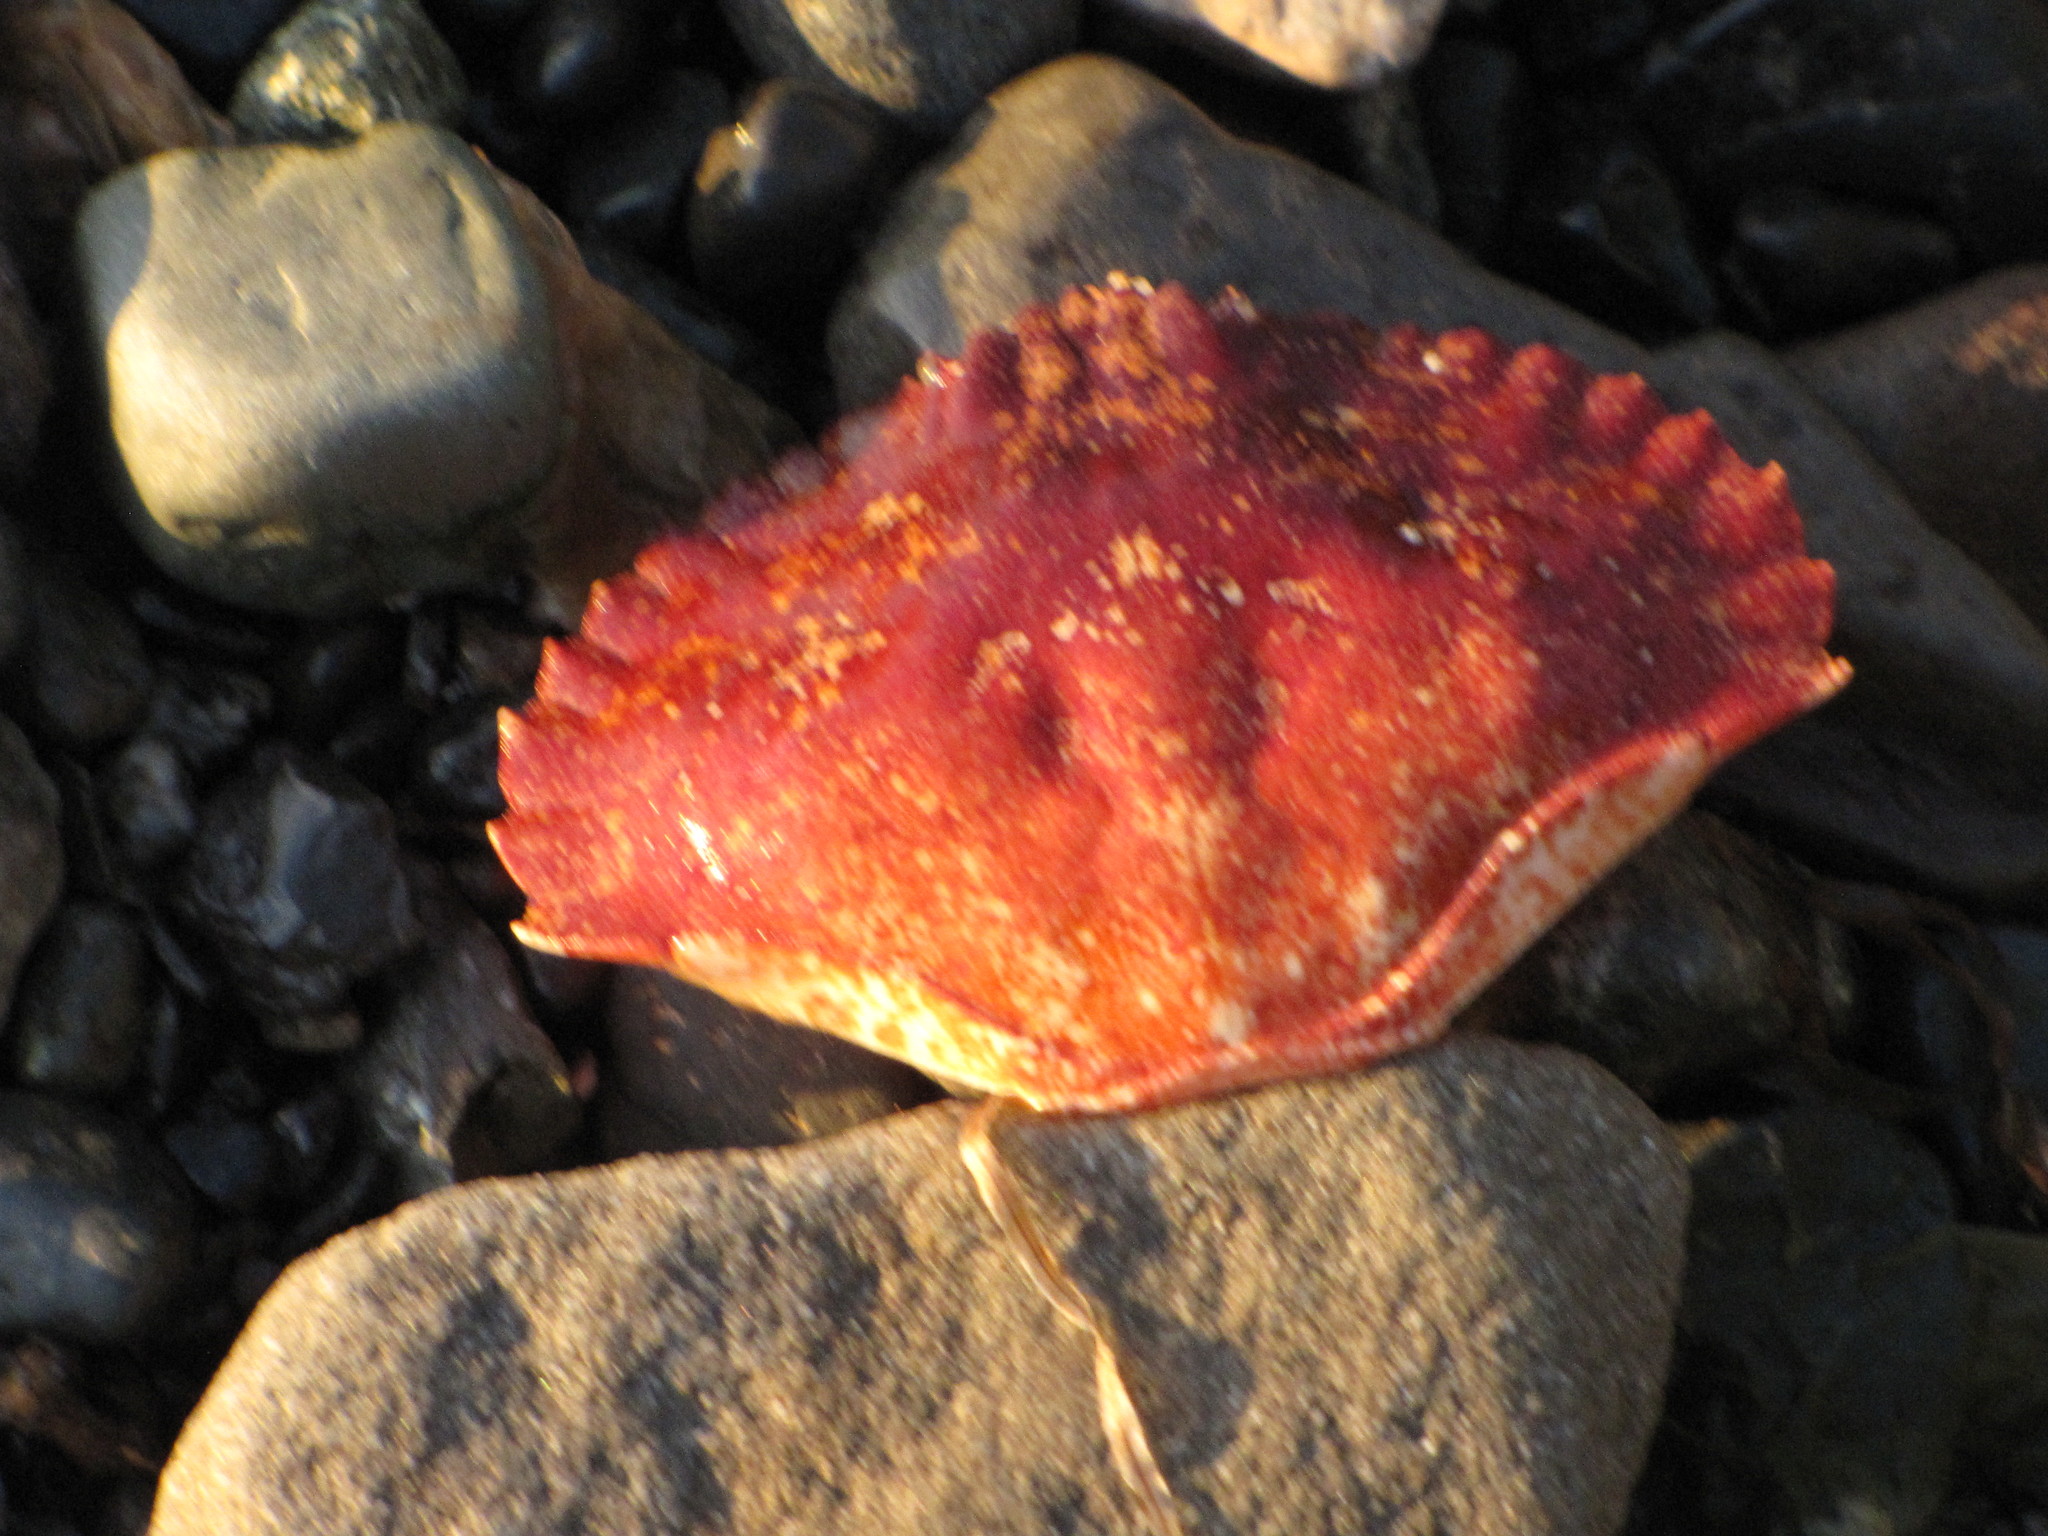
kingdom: Animalia
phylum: Arthropoda
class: Malacostraca
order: Decapoda
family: Cancridae
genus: Cancer
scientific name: Cancer productus
